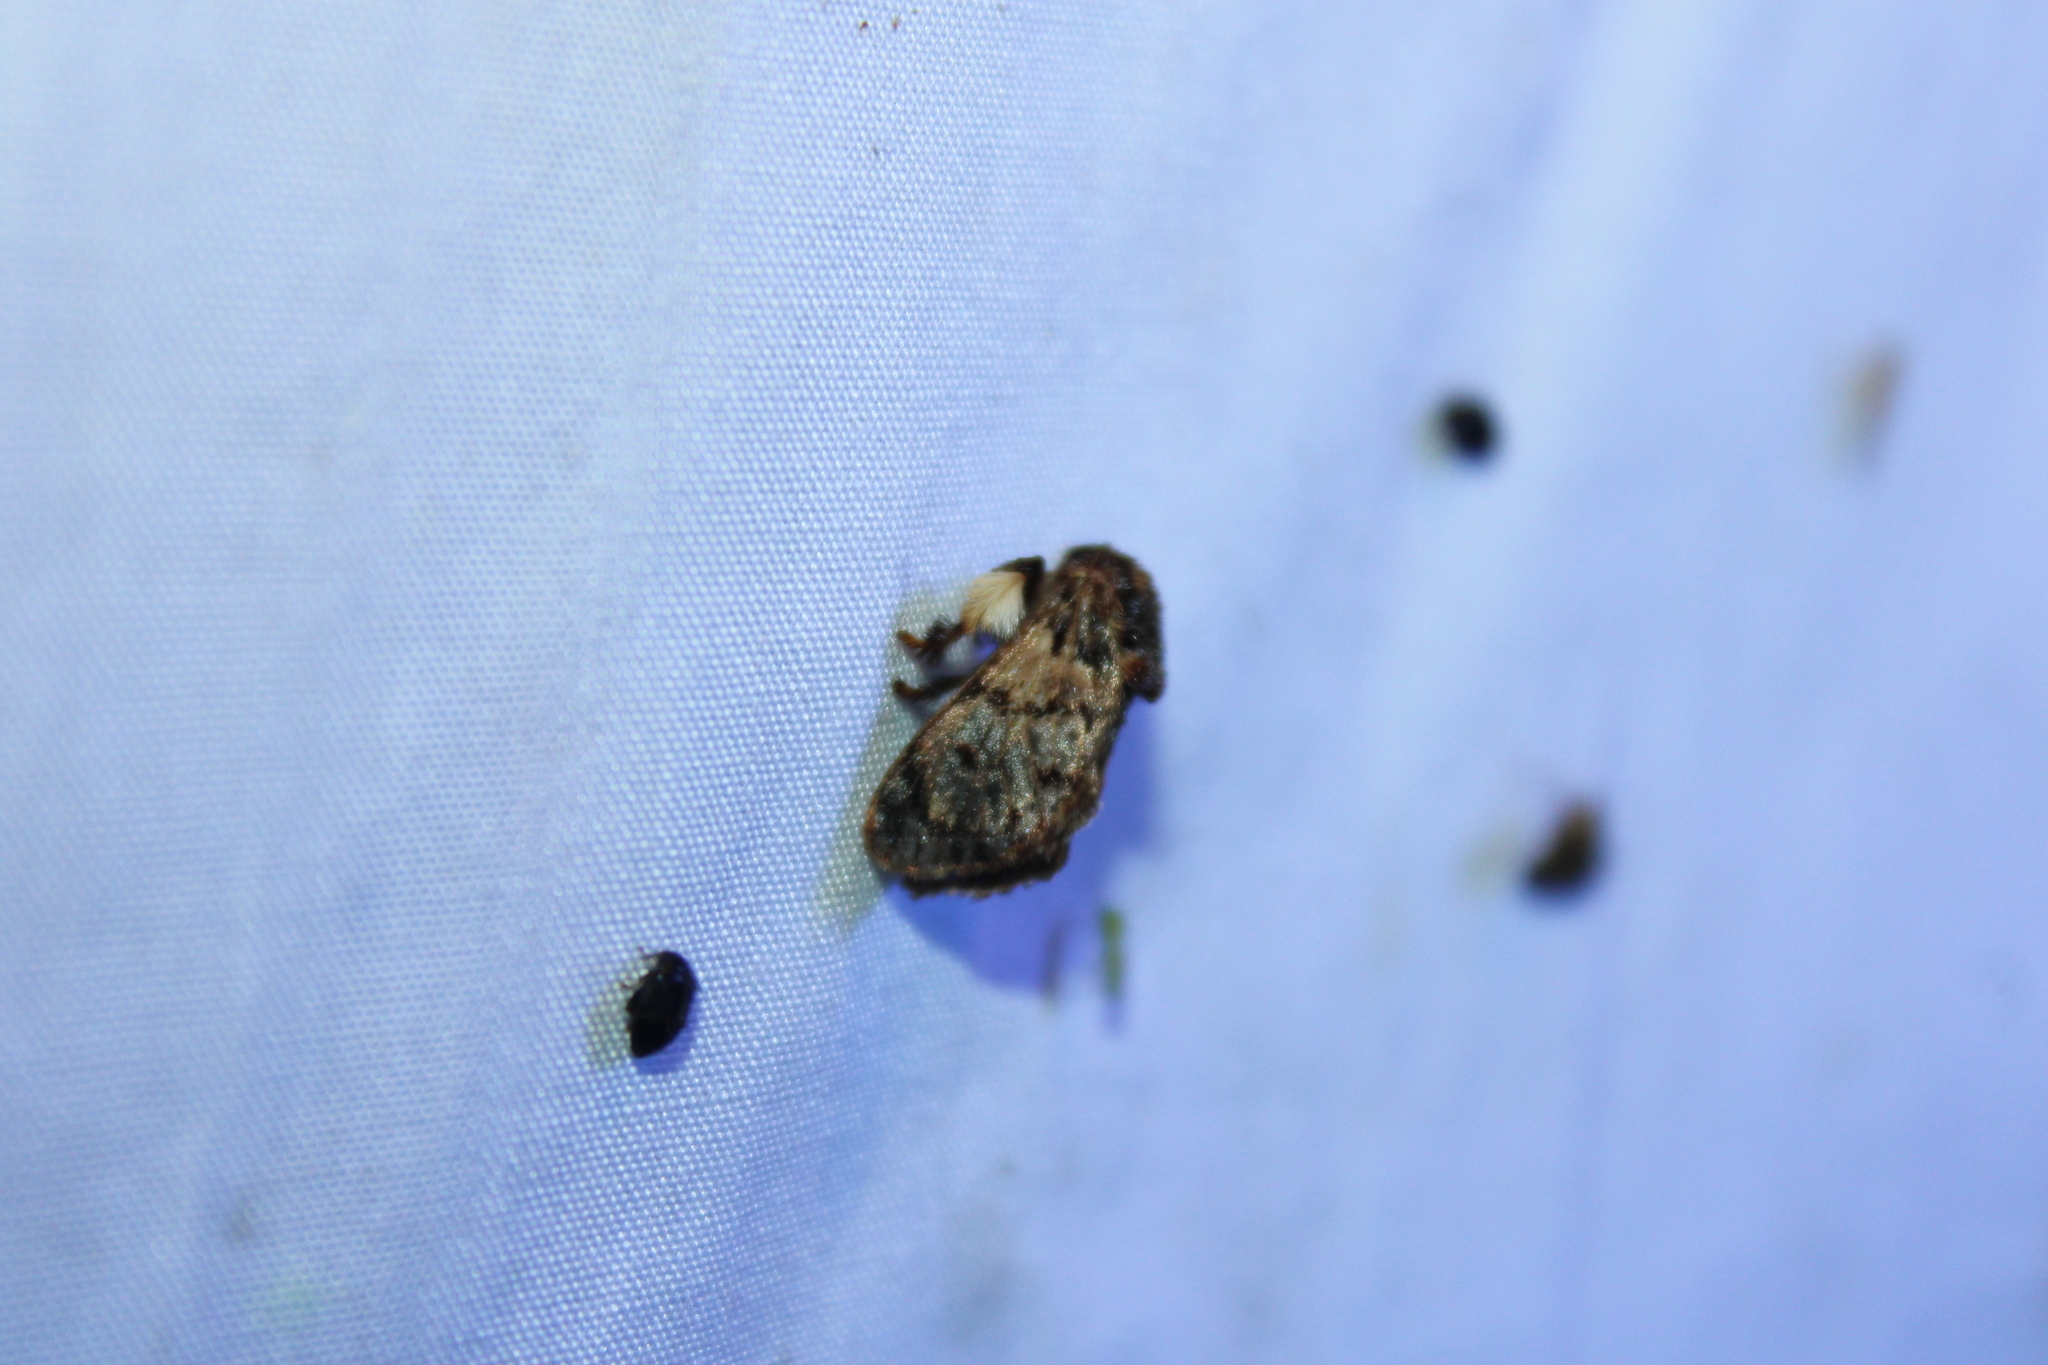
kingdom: Animalia
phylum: Arthropoda
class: Insecta
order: Lepidoptera
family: Limacodidae
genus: Phobetron
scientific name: Phobetron pithecium
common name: Hag moth
